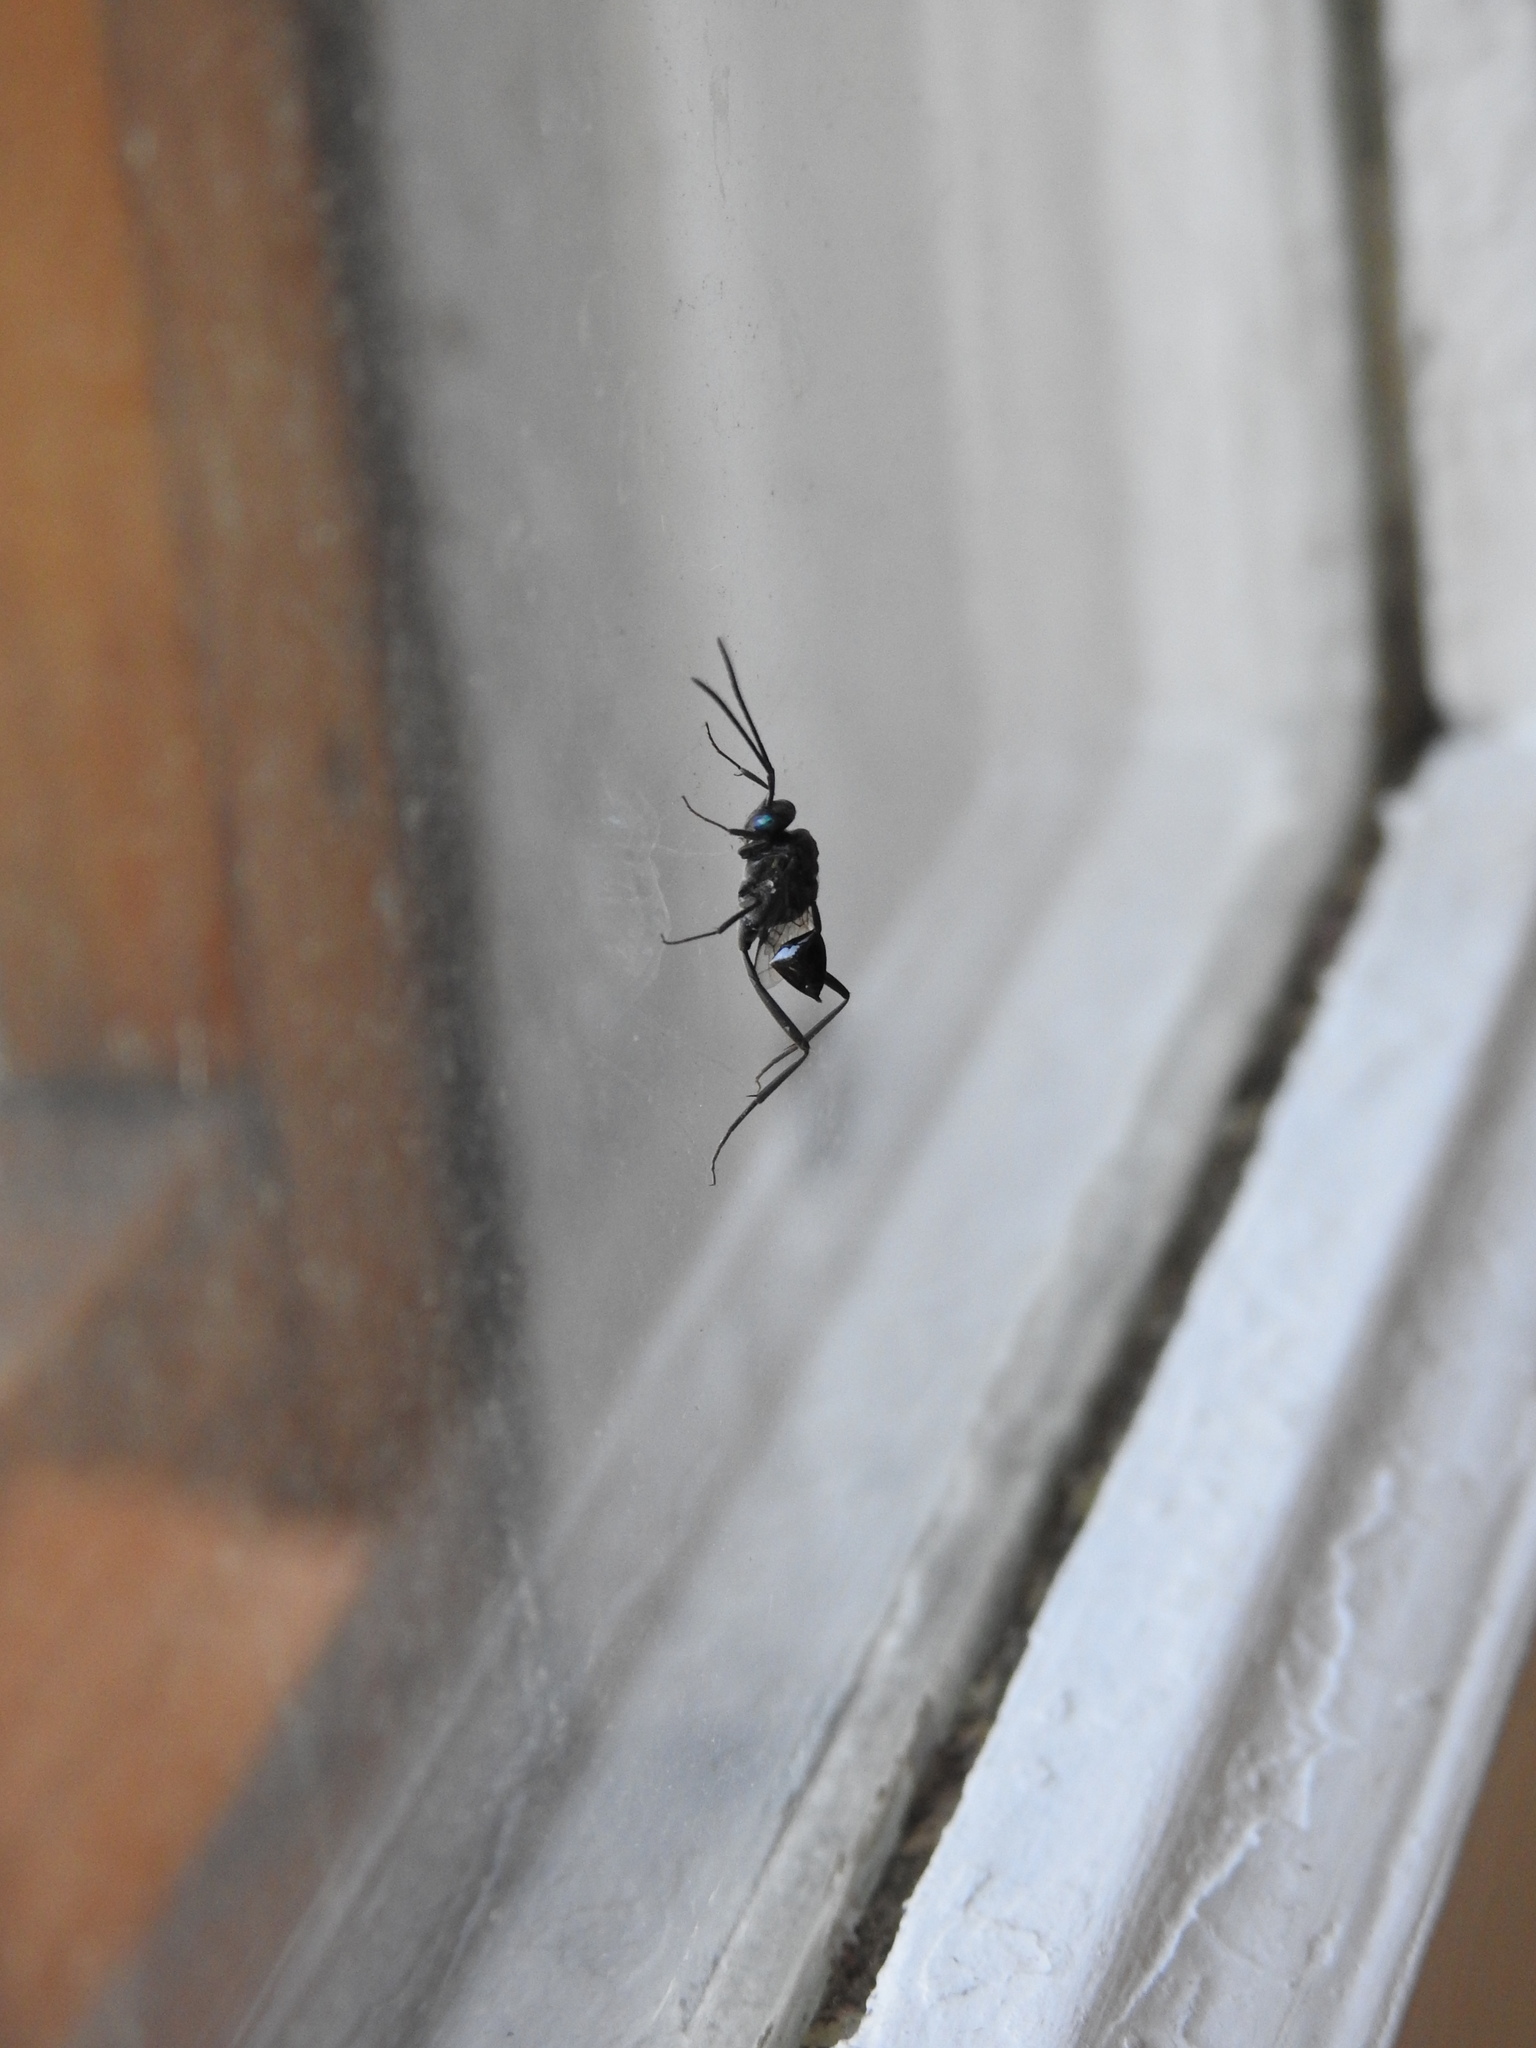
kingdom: Animalia
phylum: Arthropoda
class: Insecta
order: Hymenoptera
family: Evaniidae
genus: Evania
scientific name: Evania appendigaster
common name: Ensign wasp
